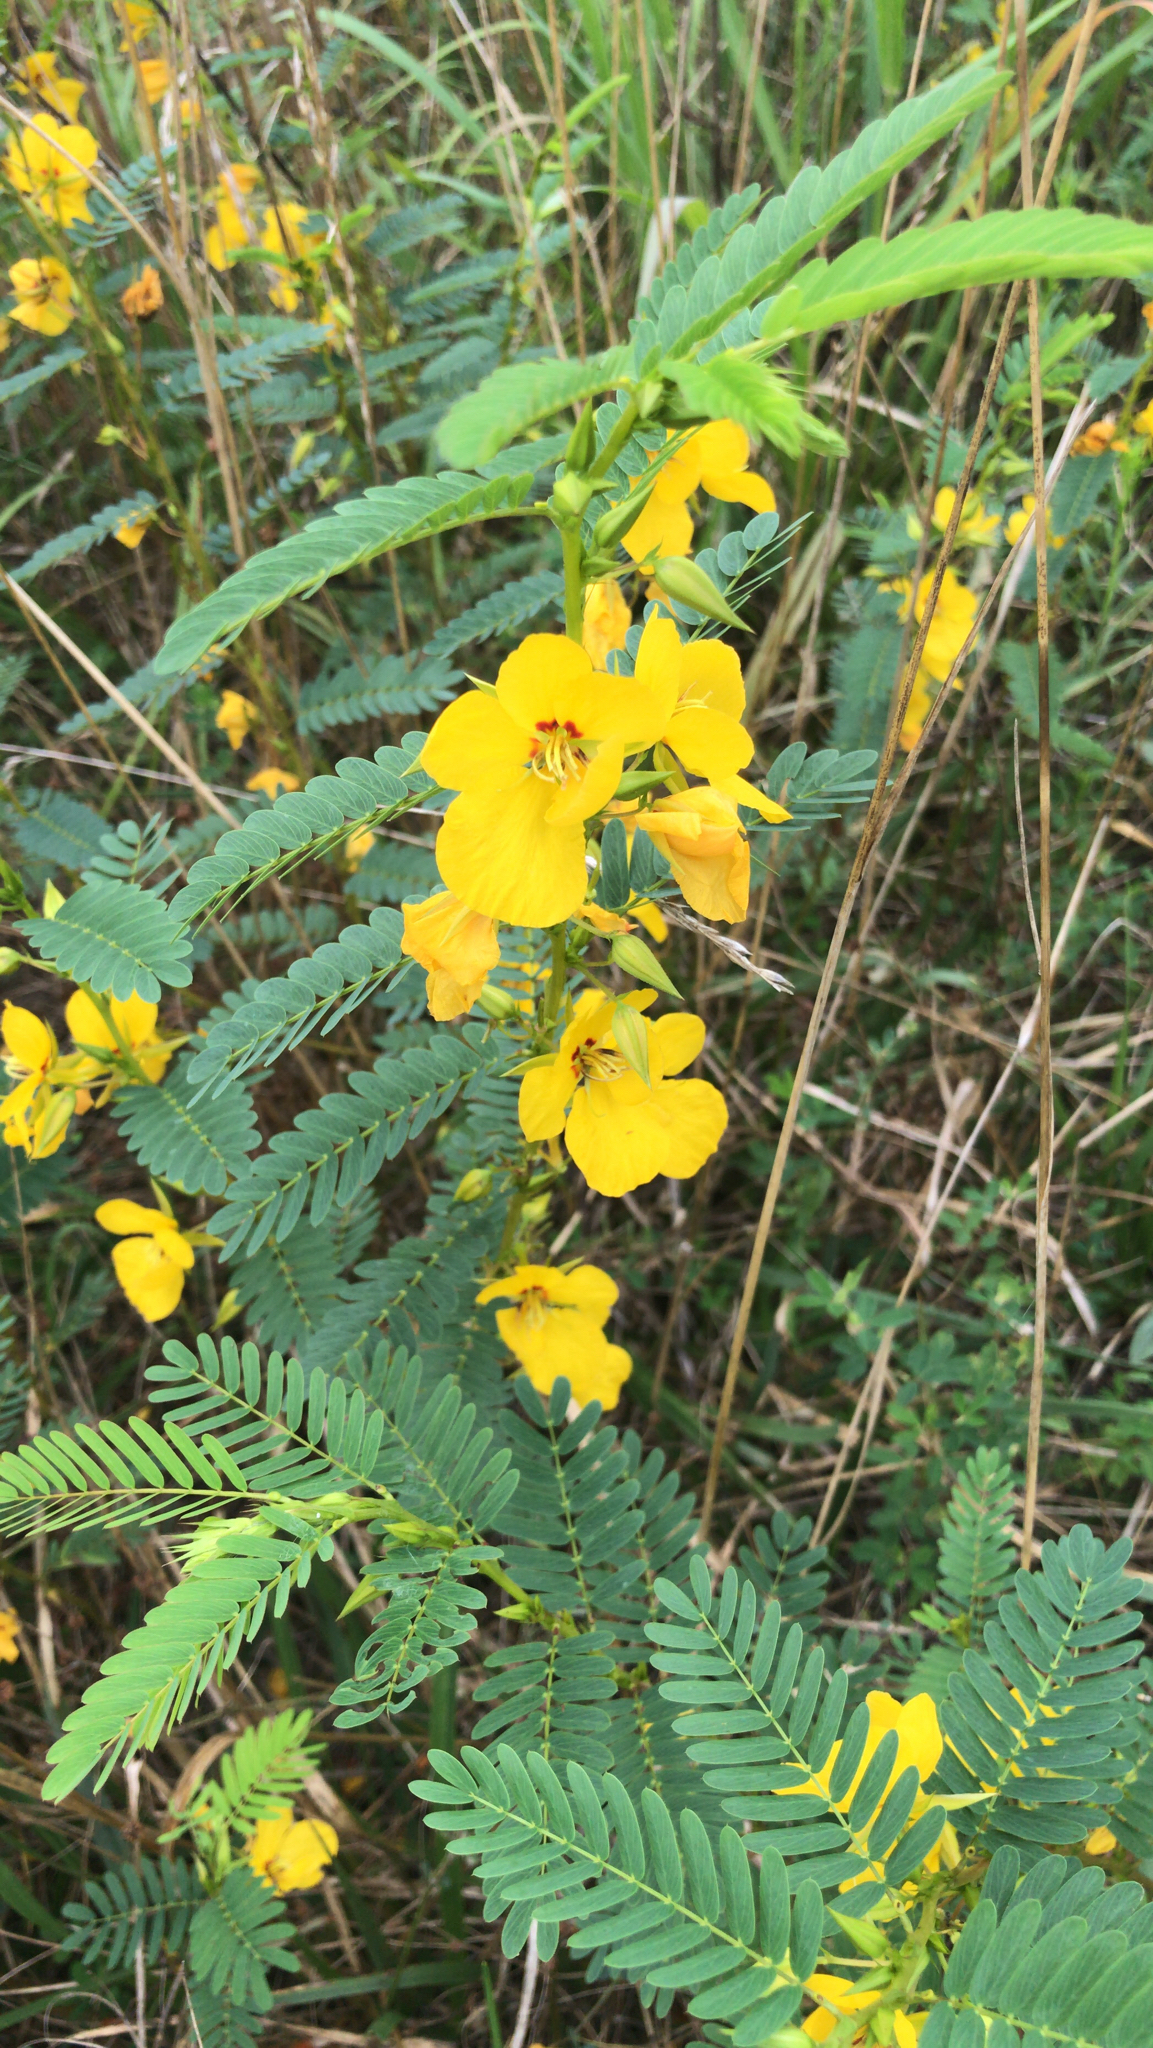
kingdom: Plantae
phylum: Tracheophyta
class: Magnoliopsida
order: Fabales
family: Fabaceae
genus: Chamaecrista
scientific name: Chamaecrista fasciculata
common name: Golden cassia
